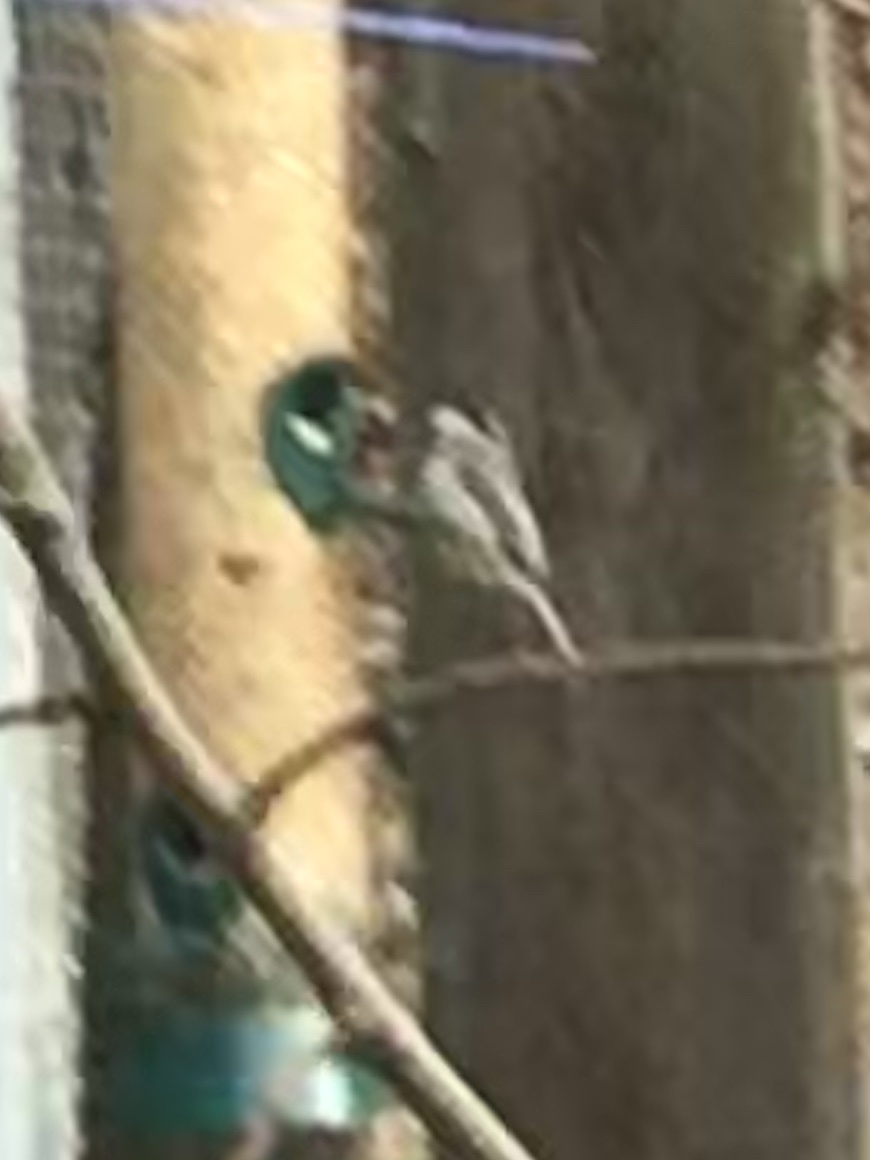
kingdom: Animalia
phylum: Chordata
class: Aves
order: Passeriformes
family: Paridae
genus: Poecile
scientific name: Poecile carolinensis
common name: Carolina chickadee
